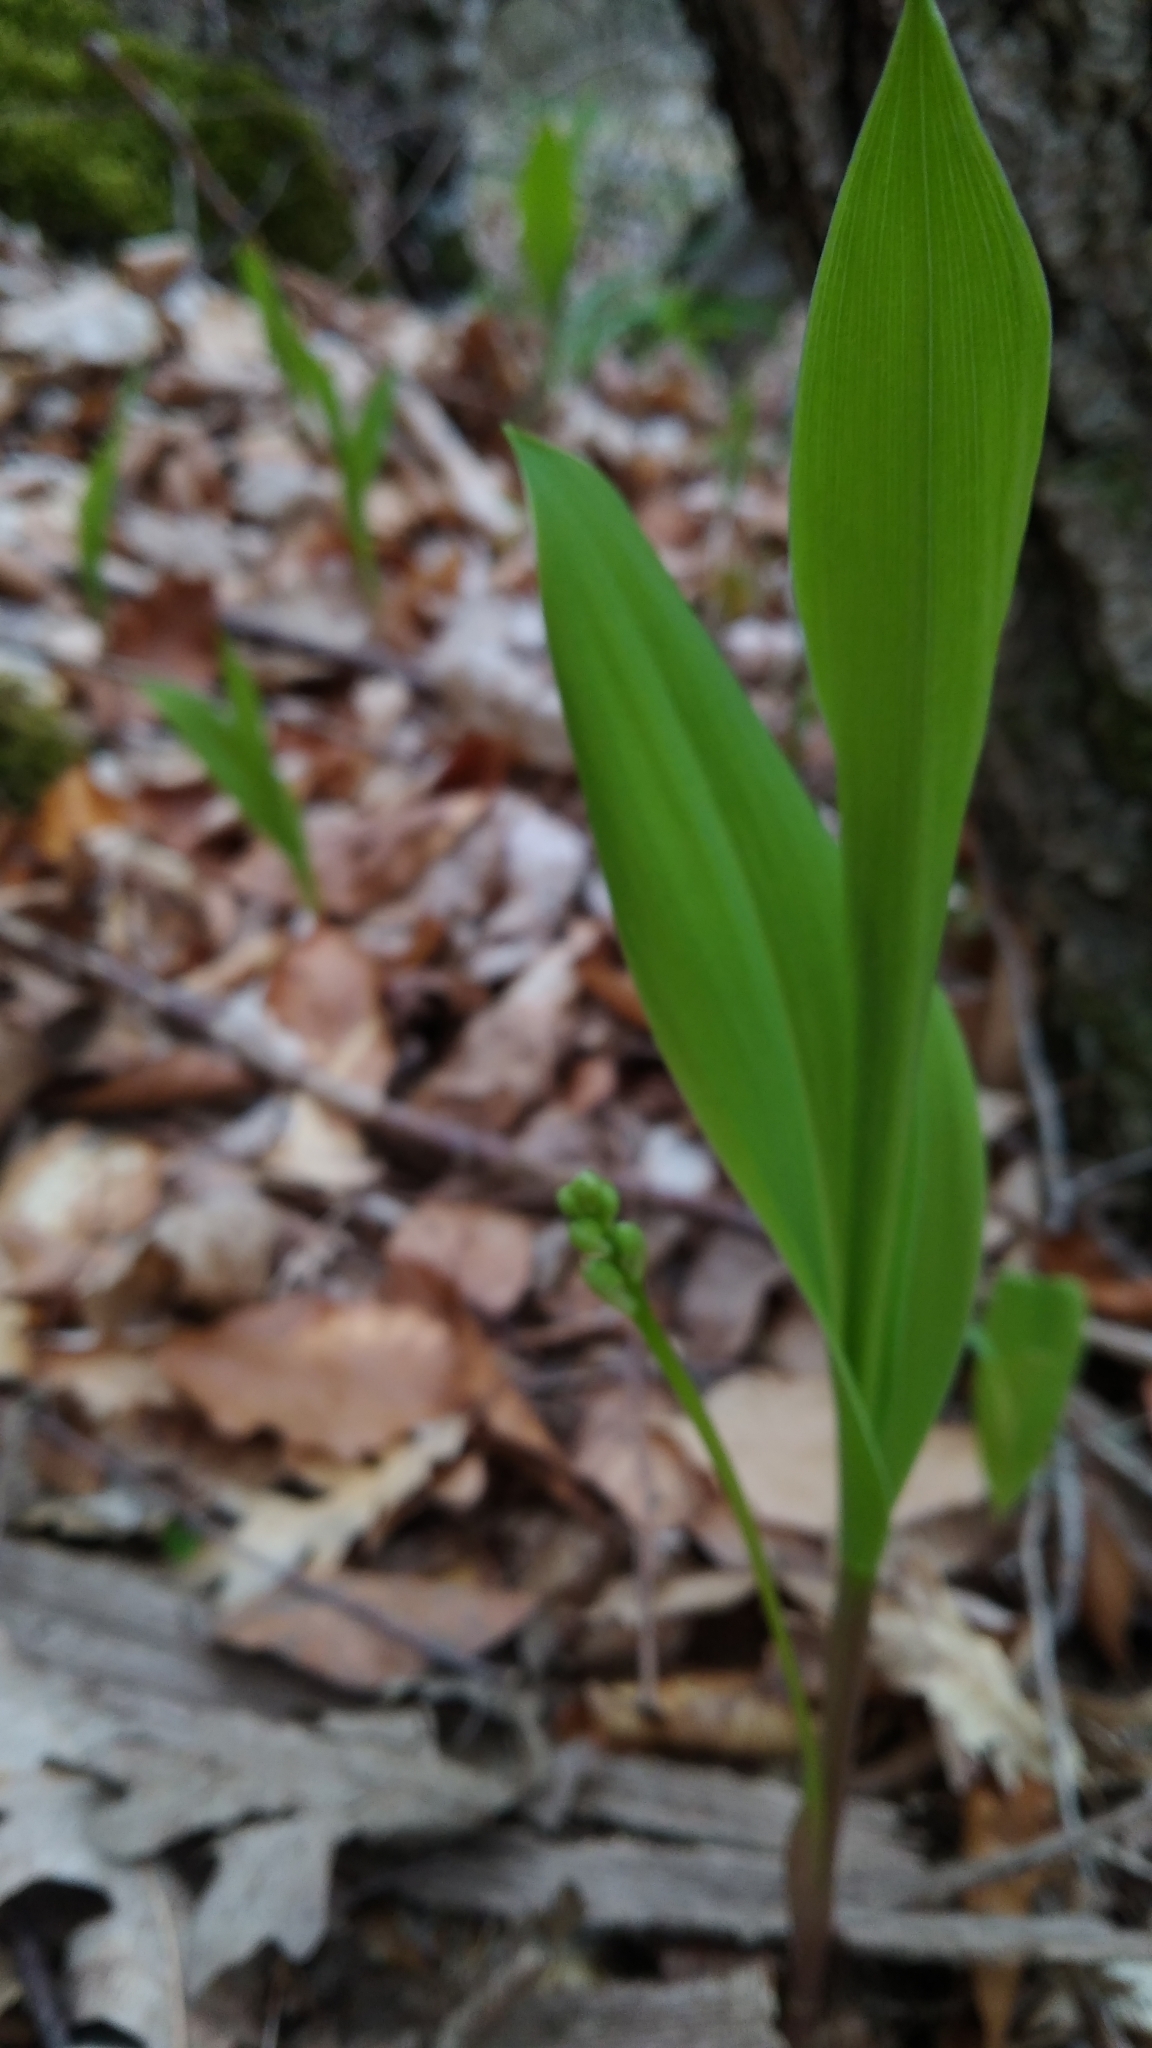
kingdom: Plantae
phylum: Tracheophyta
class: Liliopsida
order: Asparagales
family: Asparagaceae
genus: Convallaria
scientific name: Convallaria majalis
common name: Lily-of-the-valley
